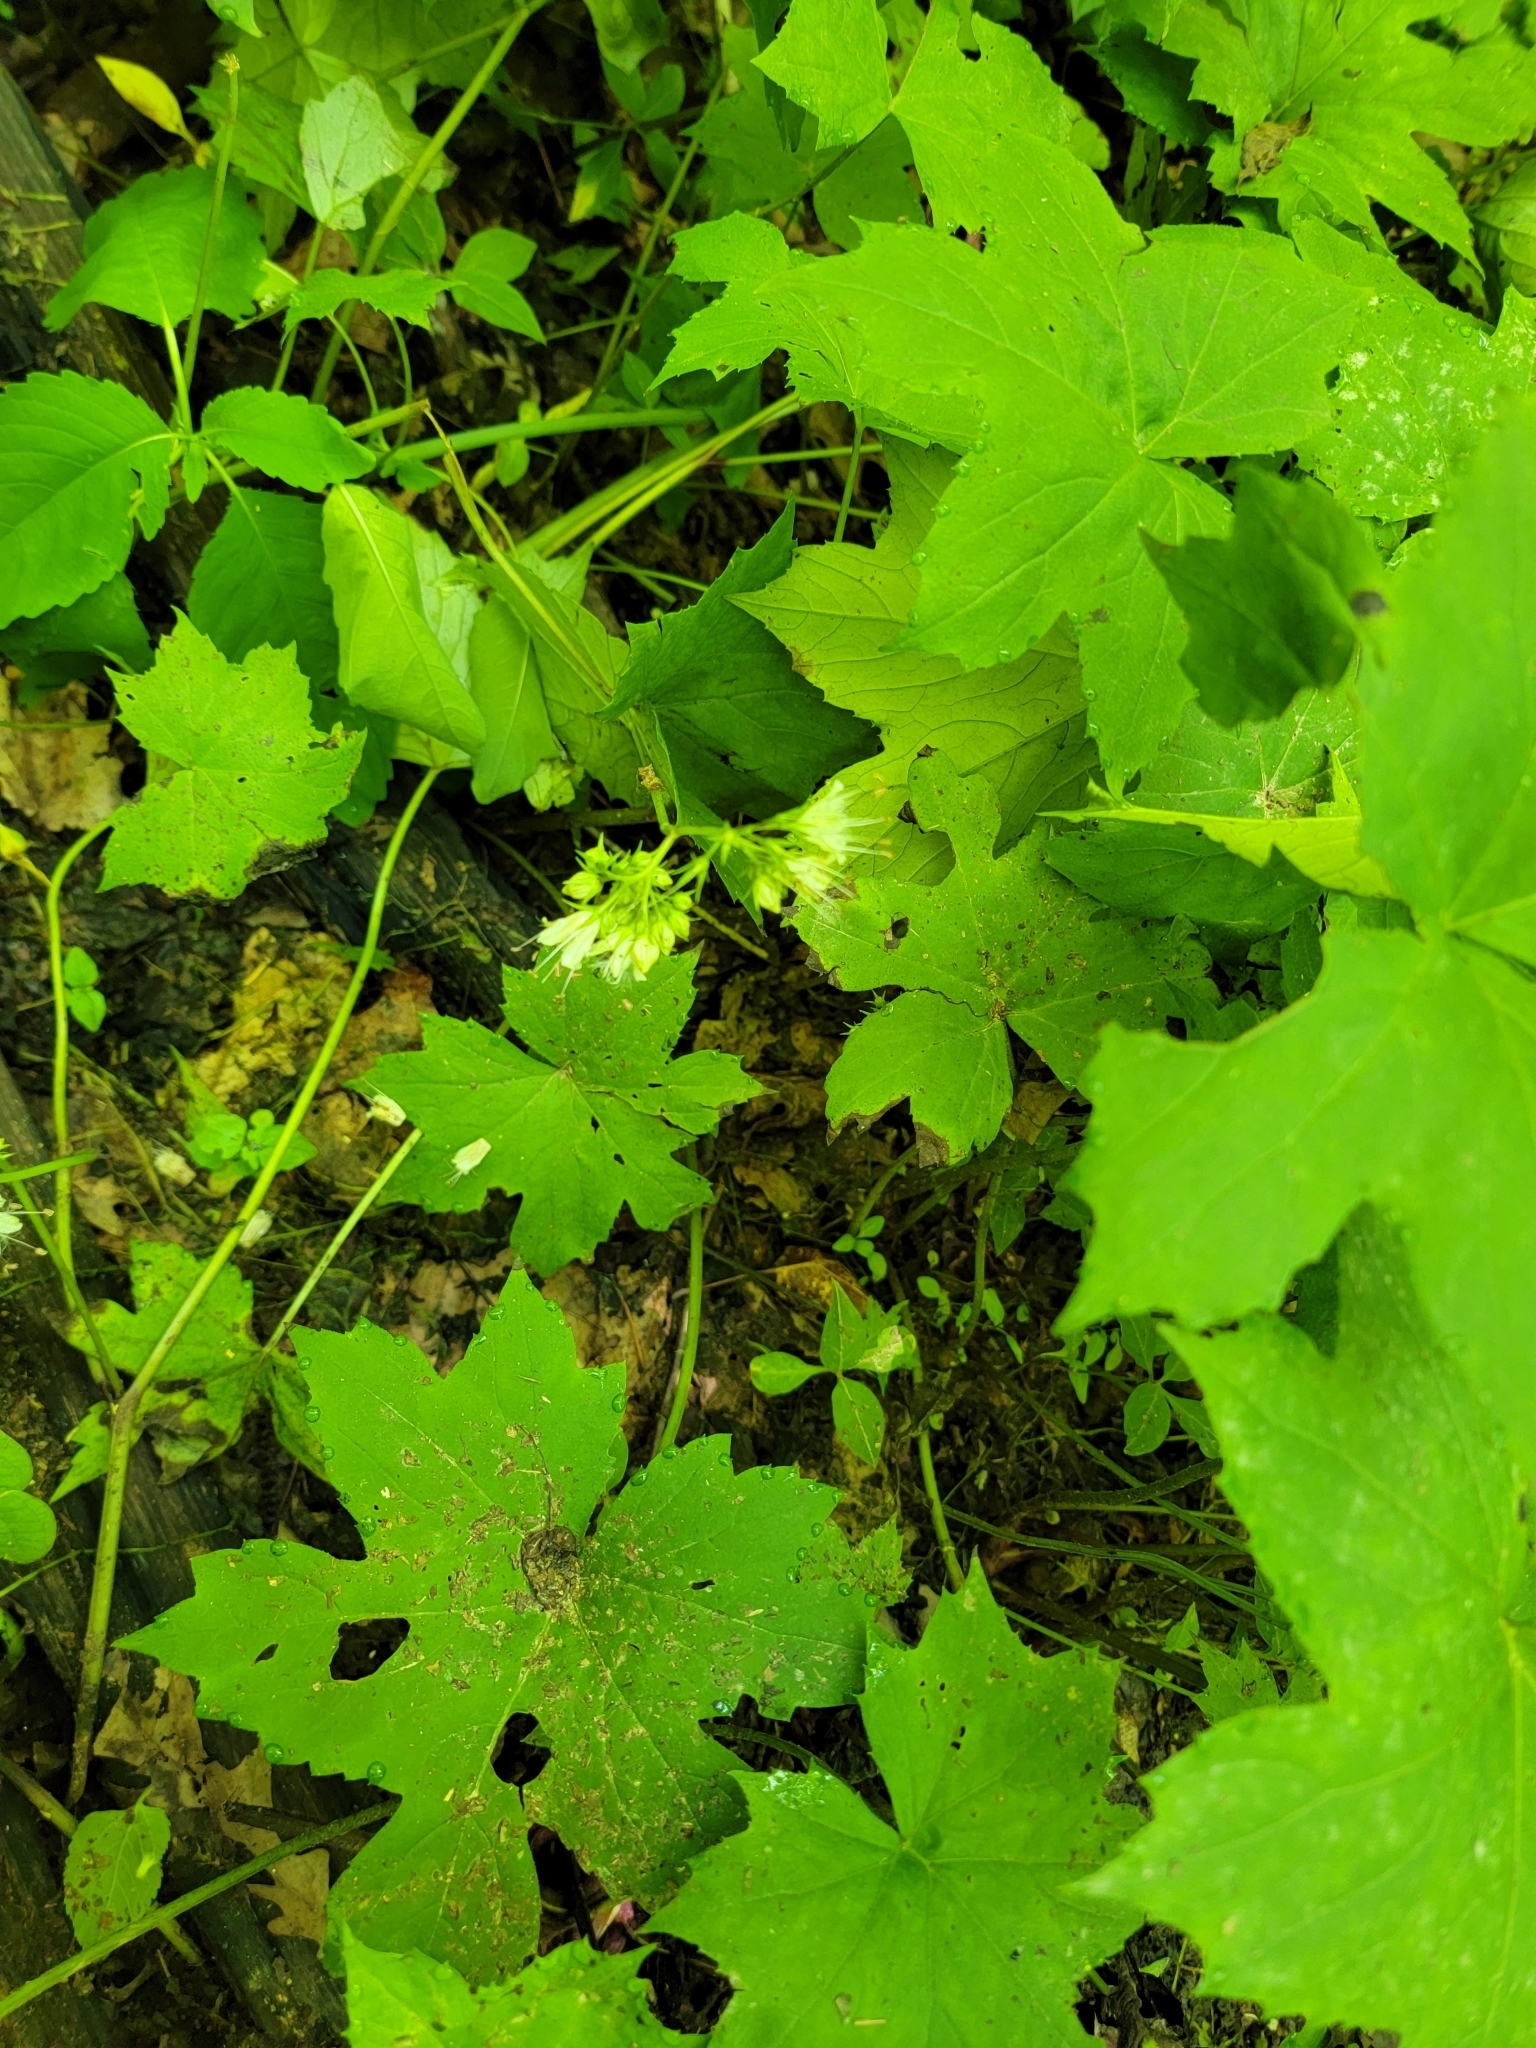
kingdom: Plantae
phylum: Tracheophyta
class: Magnoliopsida
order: Boraginales
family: Hydrophyllaceae
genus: Hydrophyllum
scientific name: Hydrophyllum canadense
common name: Canada waterleaf
